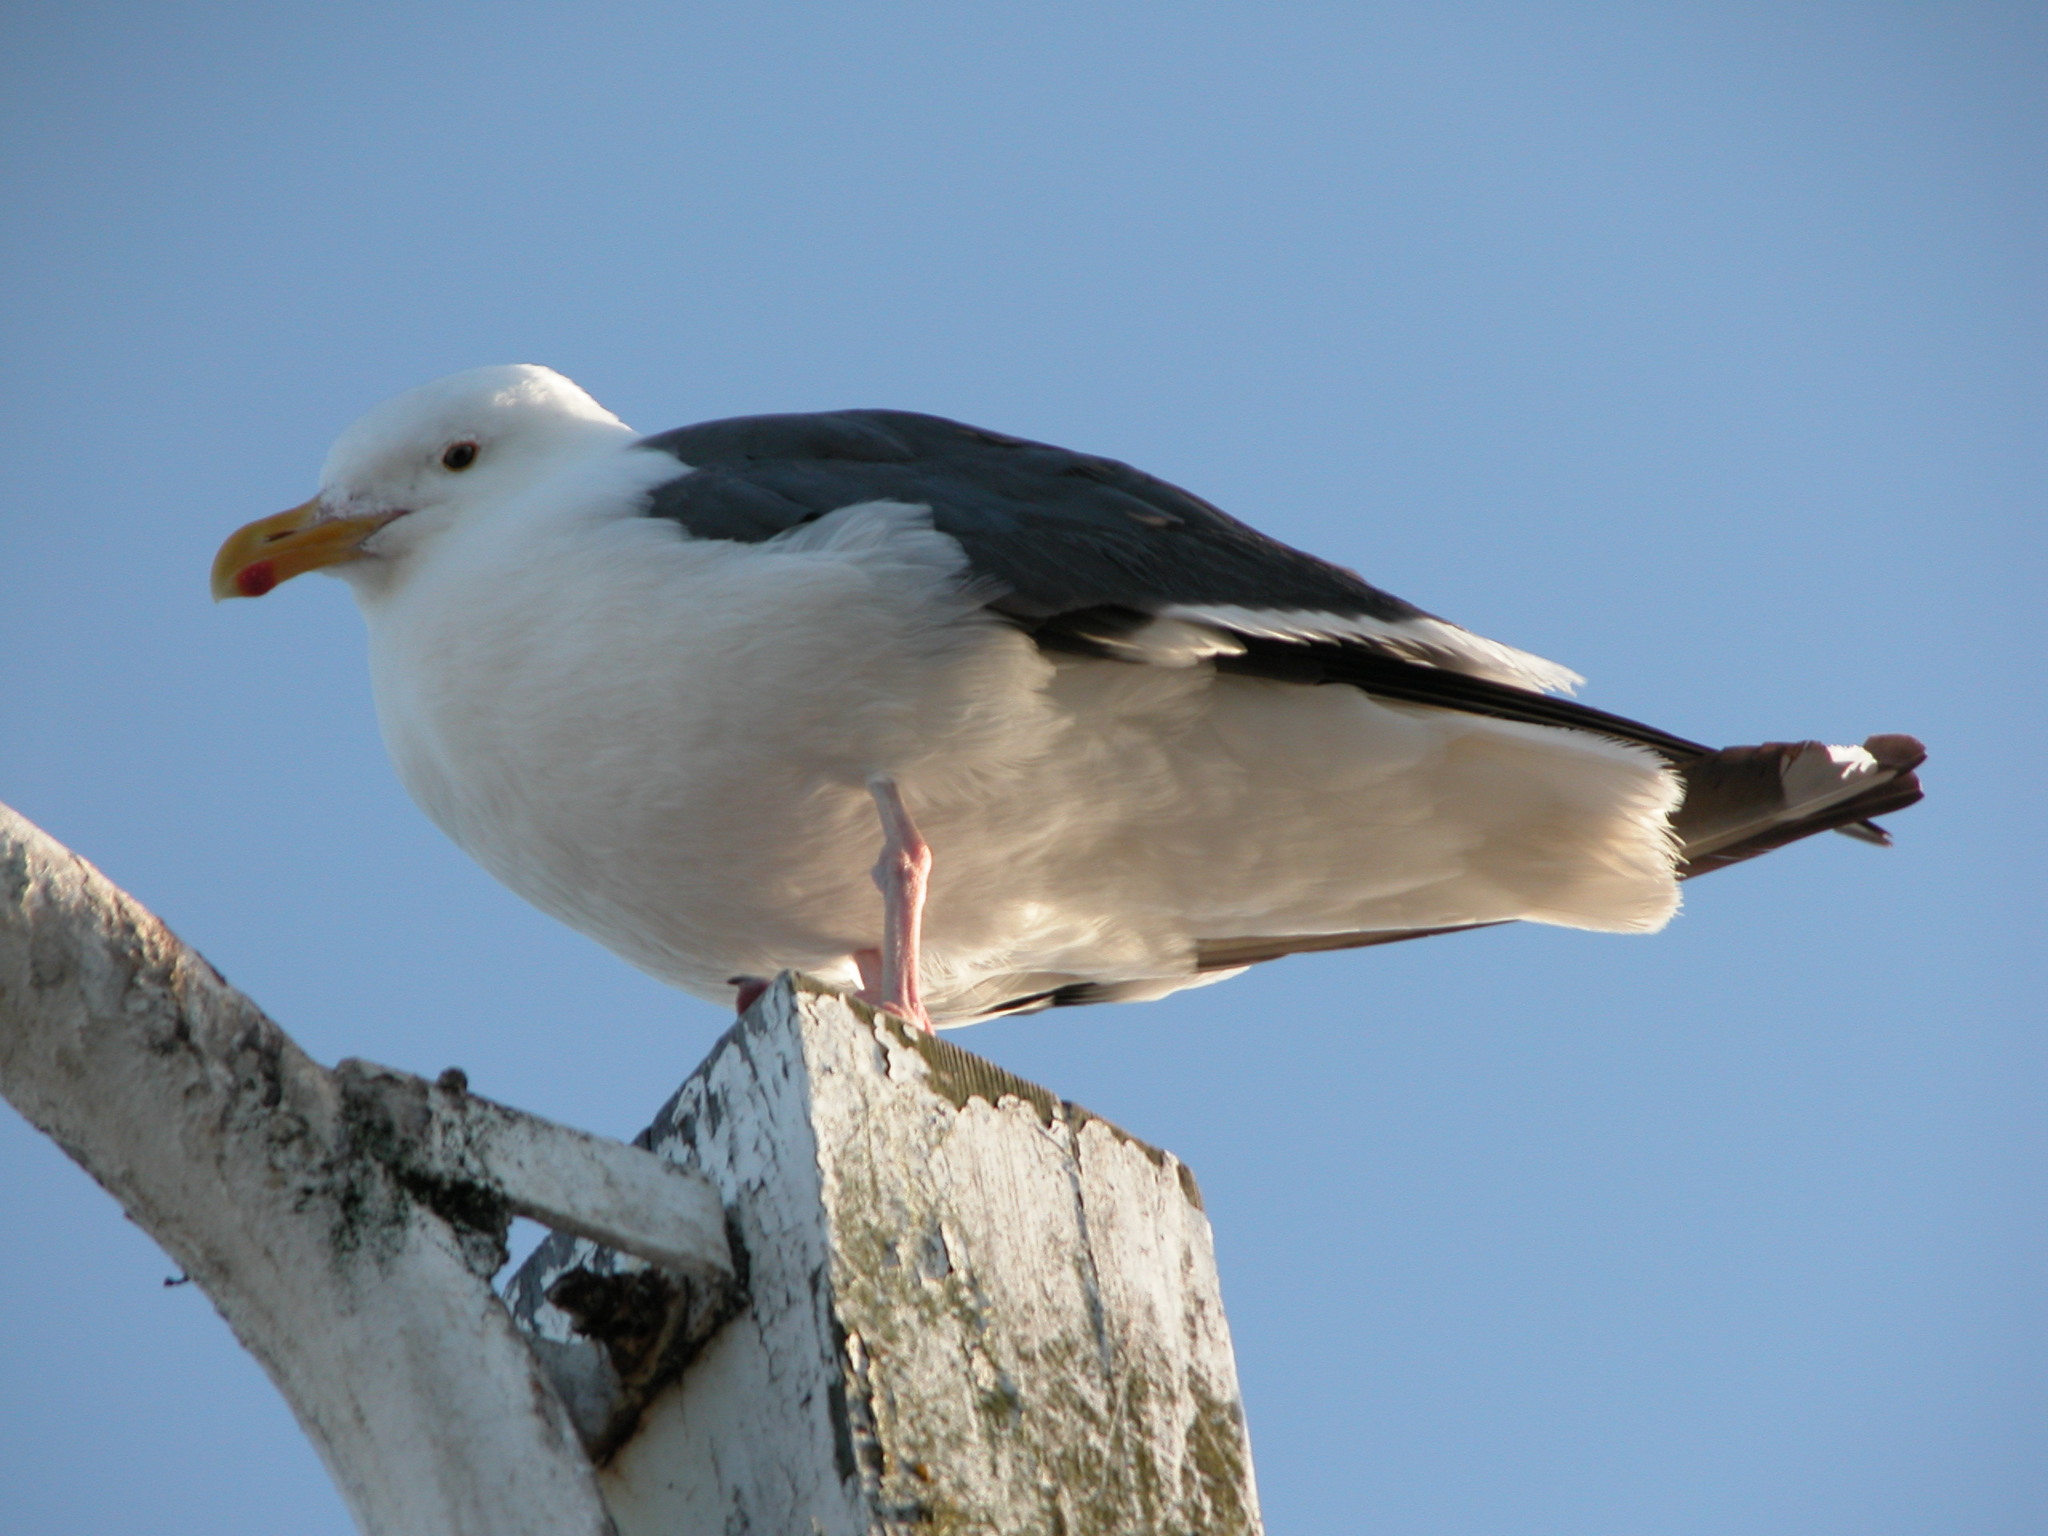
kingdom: Animalia
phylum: Chordata
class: Aves
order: Charadriiformes
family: Laridae
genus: Larus
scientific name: Larus occidentalis
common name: Western gull
